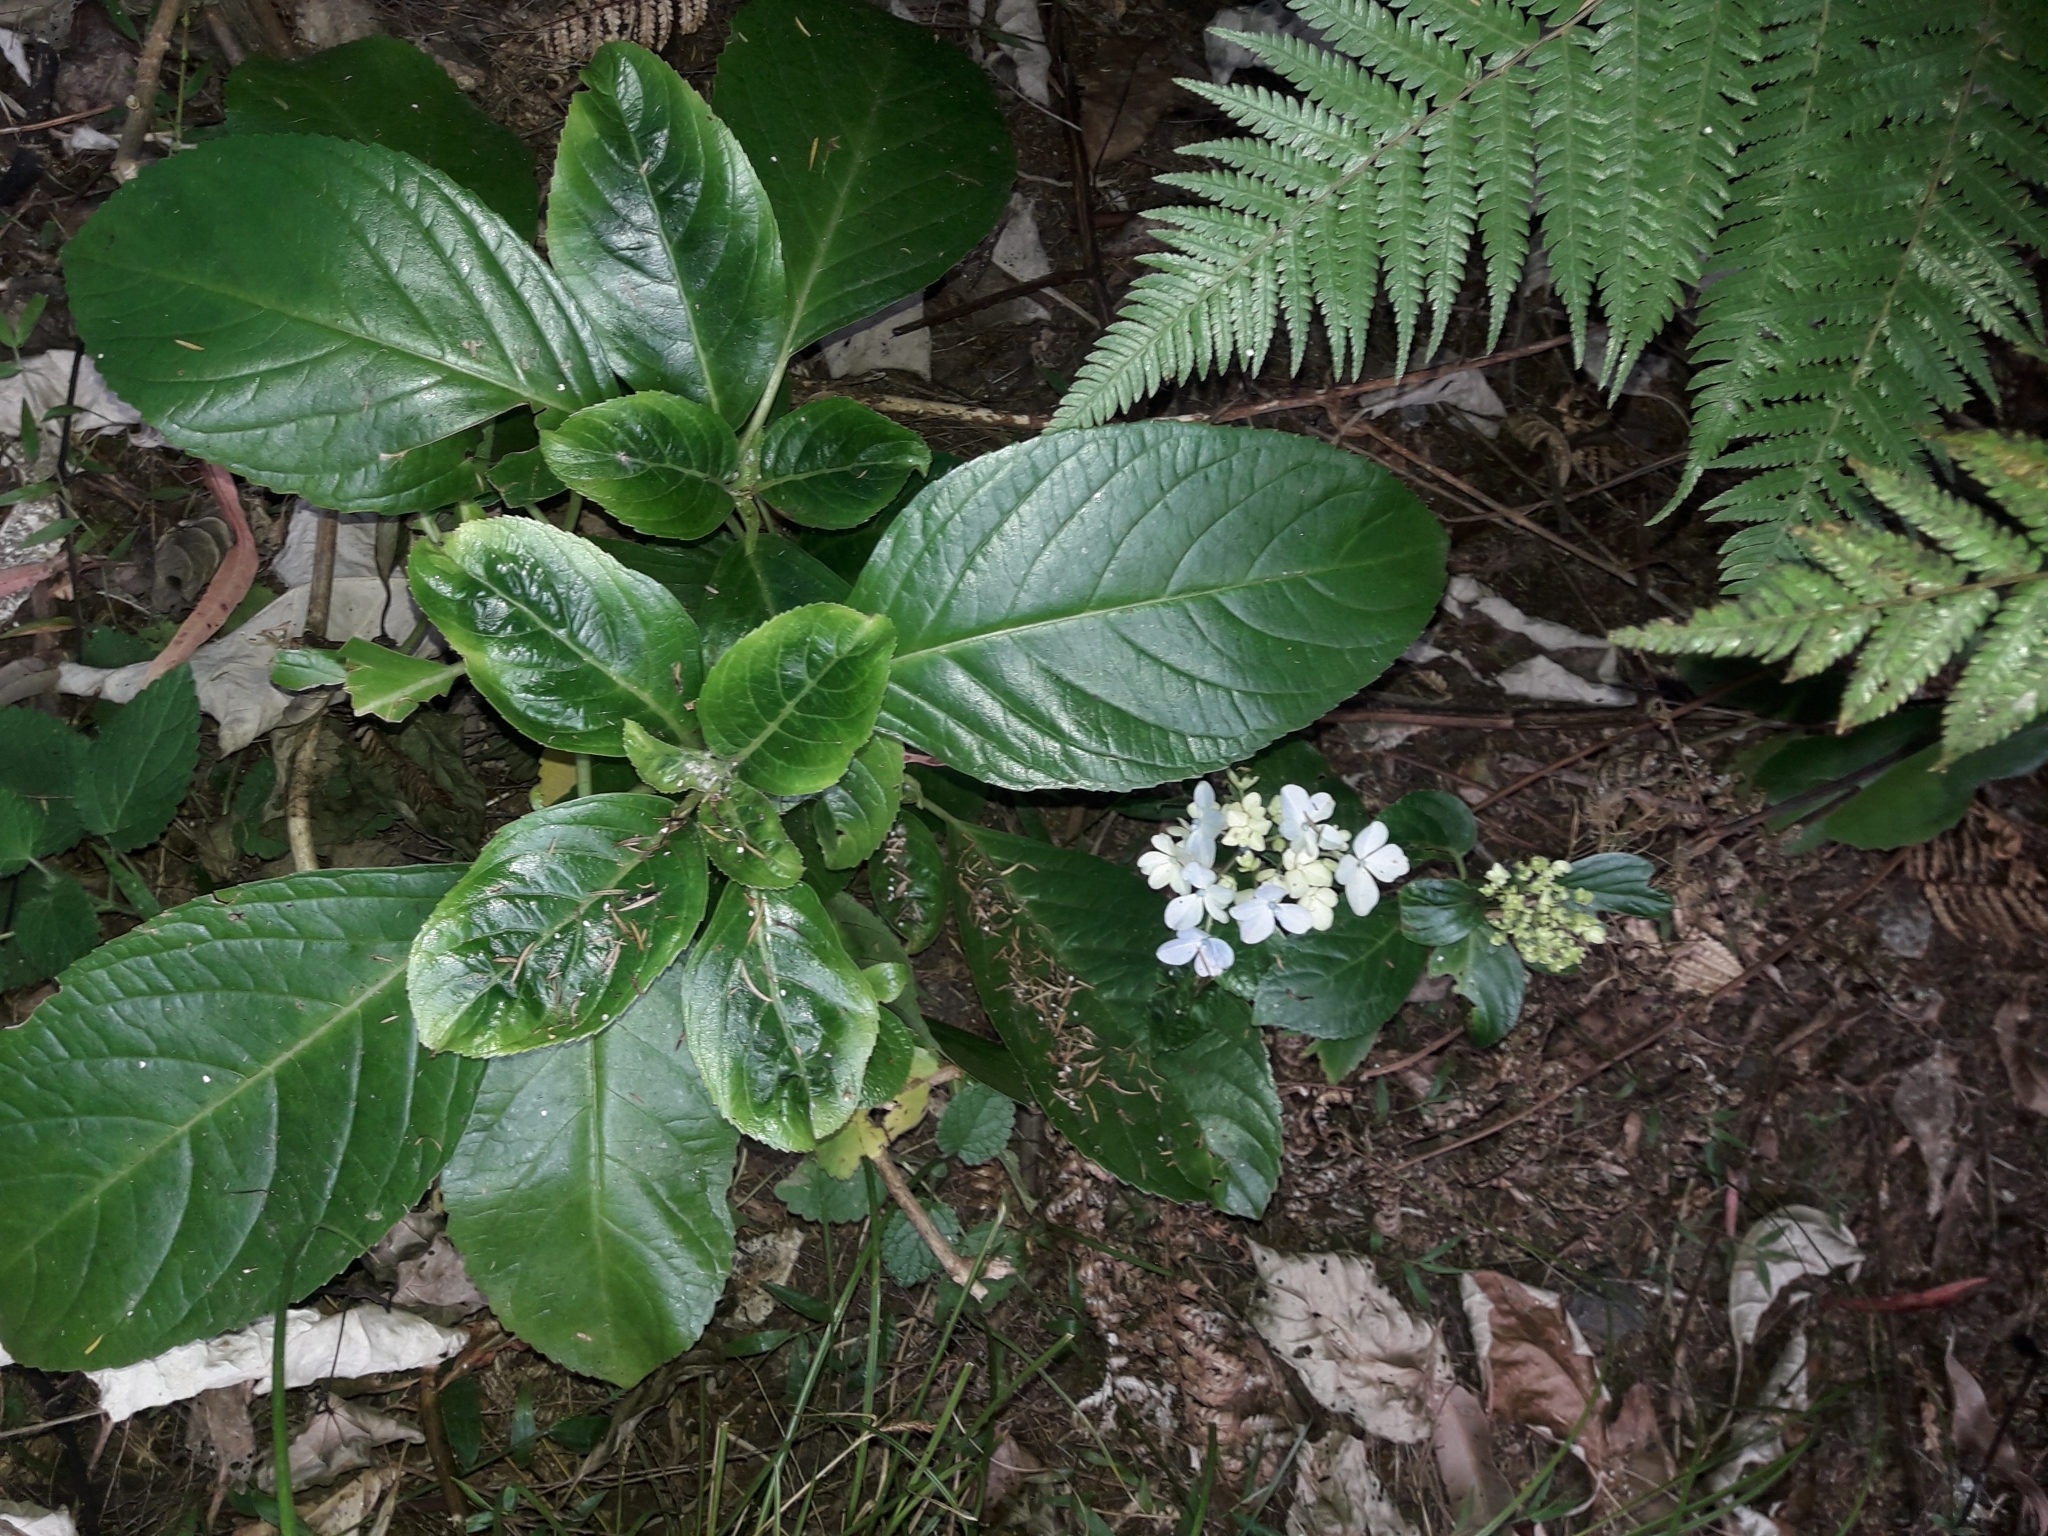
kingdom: Plantae
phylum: Tracheophyta
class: Magnoliopsida
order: Cornales
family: Hydrangeaceae
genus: Hydrangea
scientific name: Hydrangea macrophylla
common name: Hydrangea
